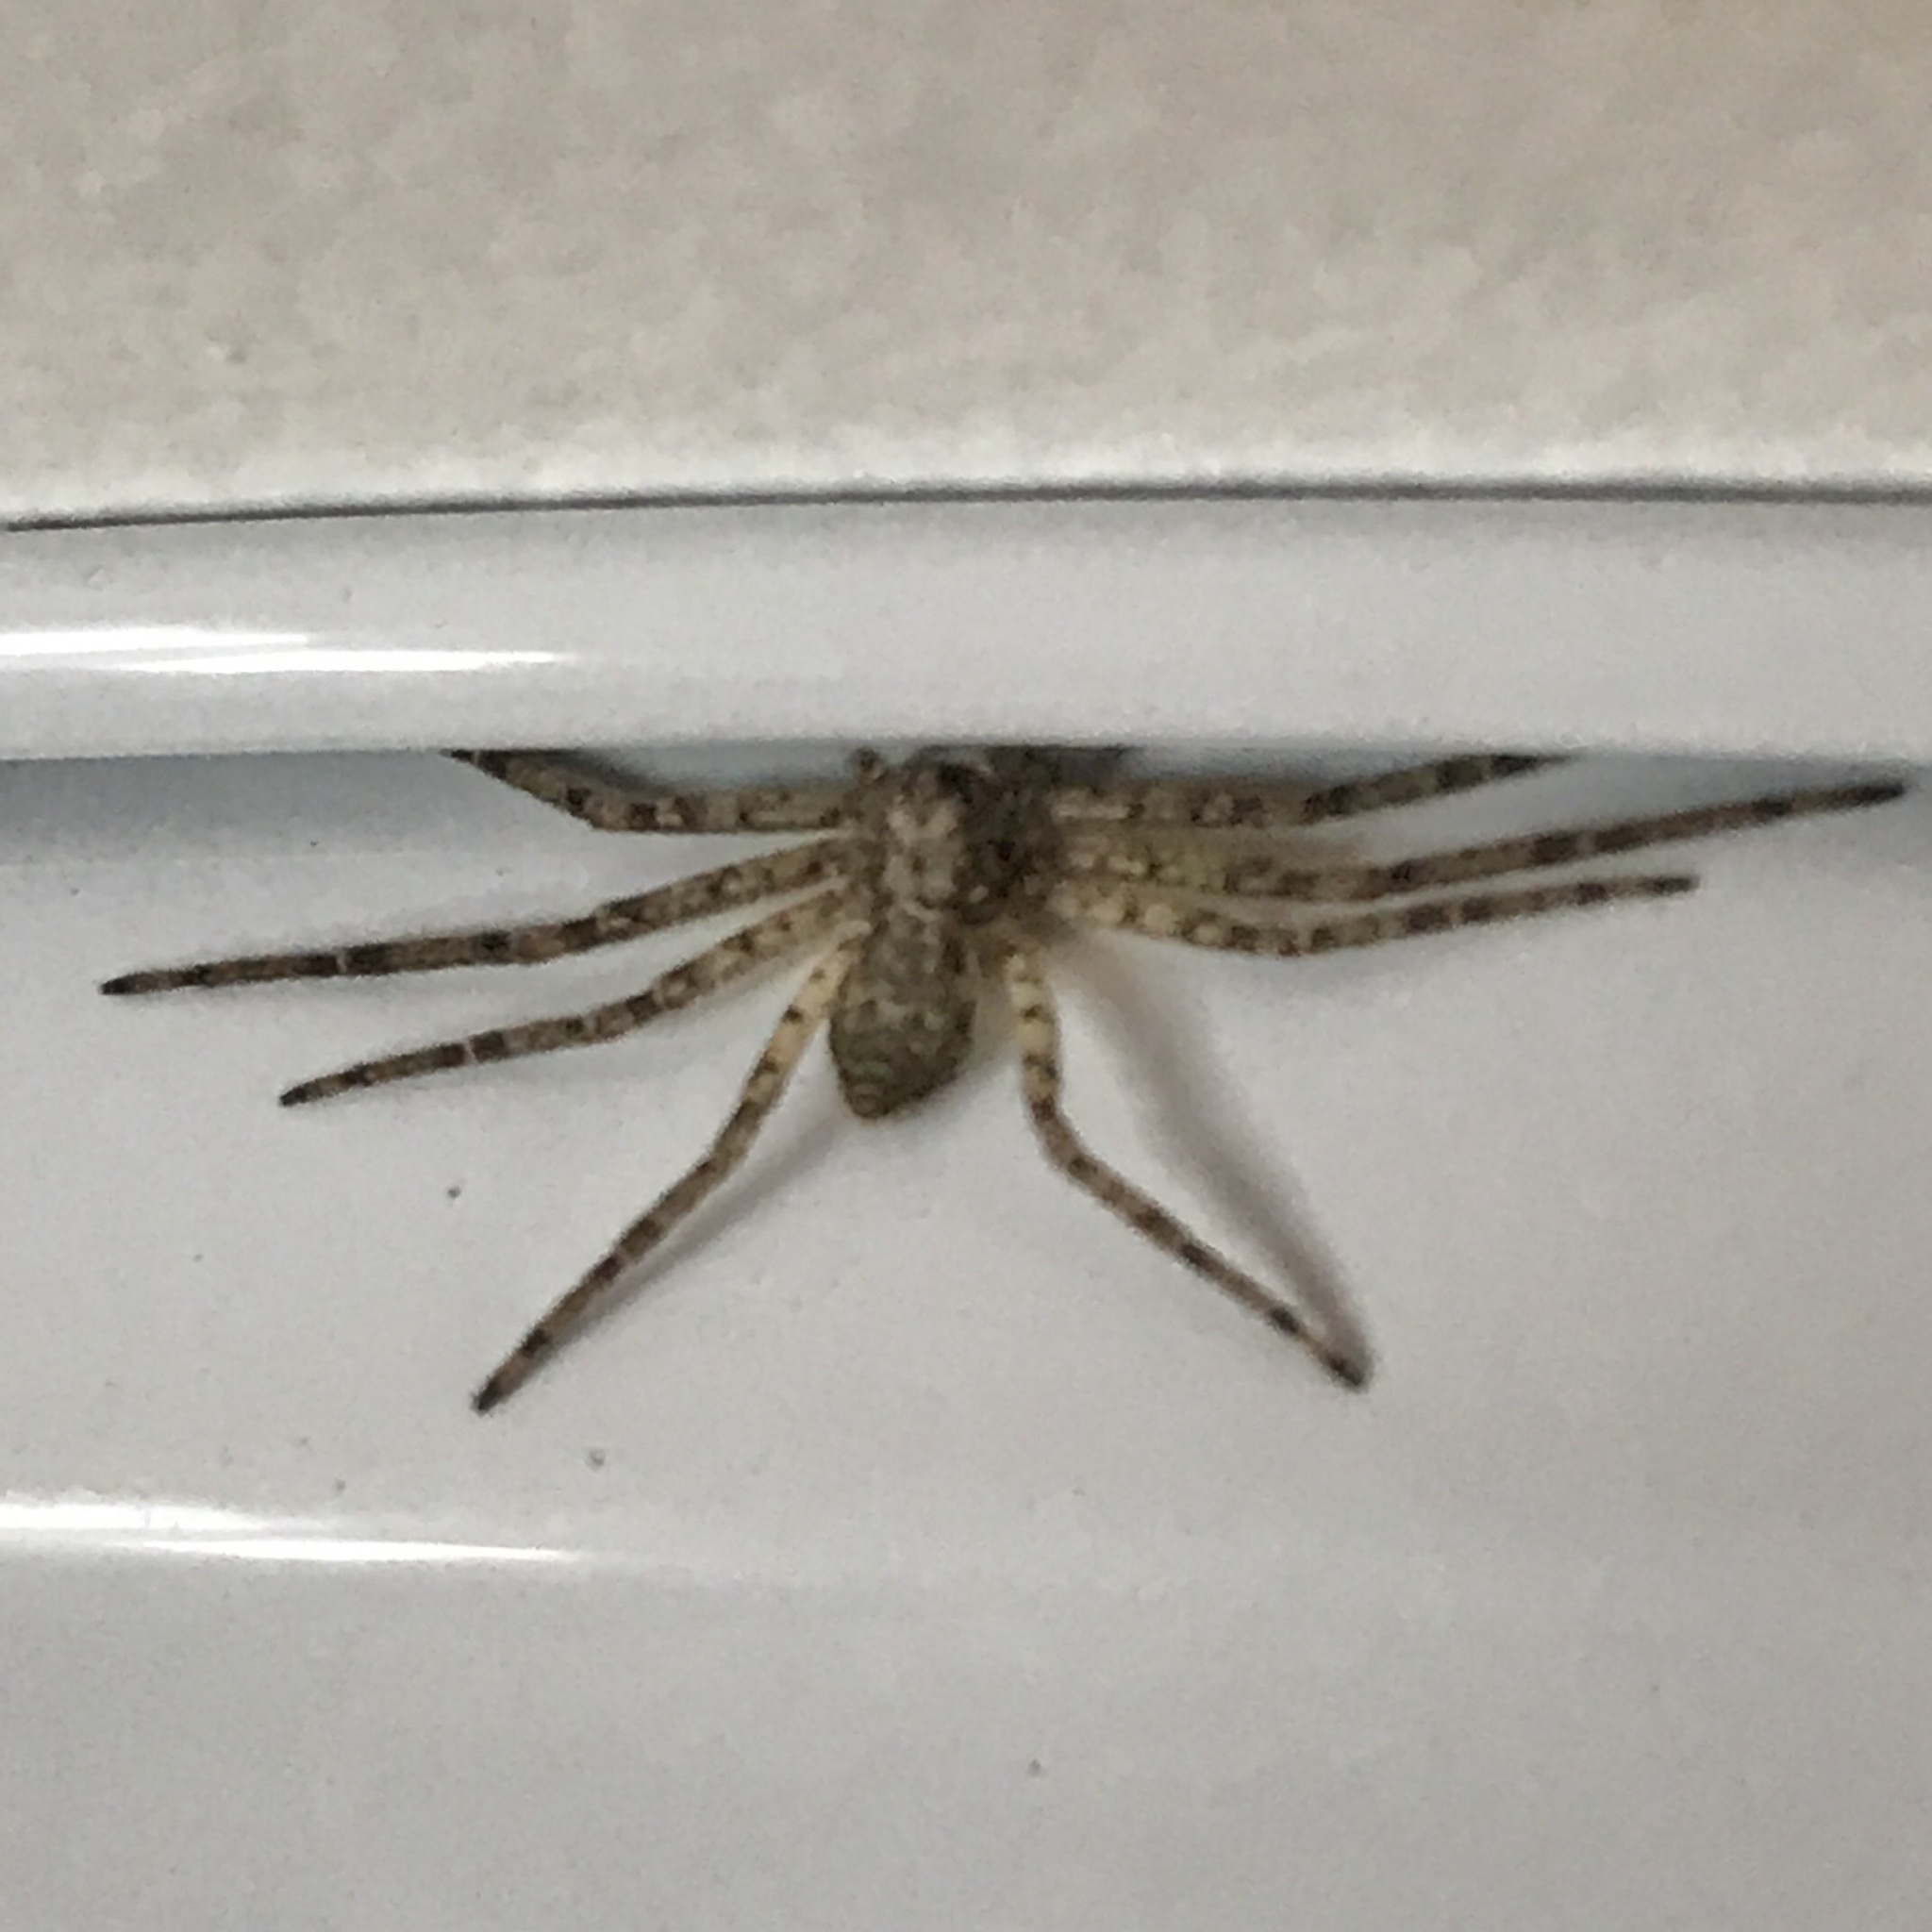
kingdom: Animalia
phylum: Arthropoda
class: Arachnida
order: Araneae
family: Philodromidae
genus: Philodromus
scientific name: Philodromus
